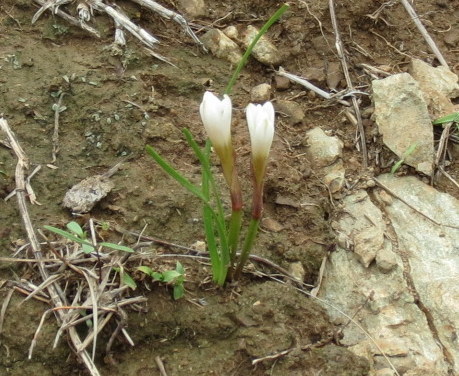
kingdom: Plantae
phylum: Tracheophyta
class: Liliopsida
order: Asparagales
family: Amaryllidaceae
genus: Zephyranthes
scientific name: Zephyranthes fosteri
